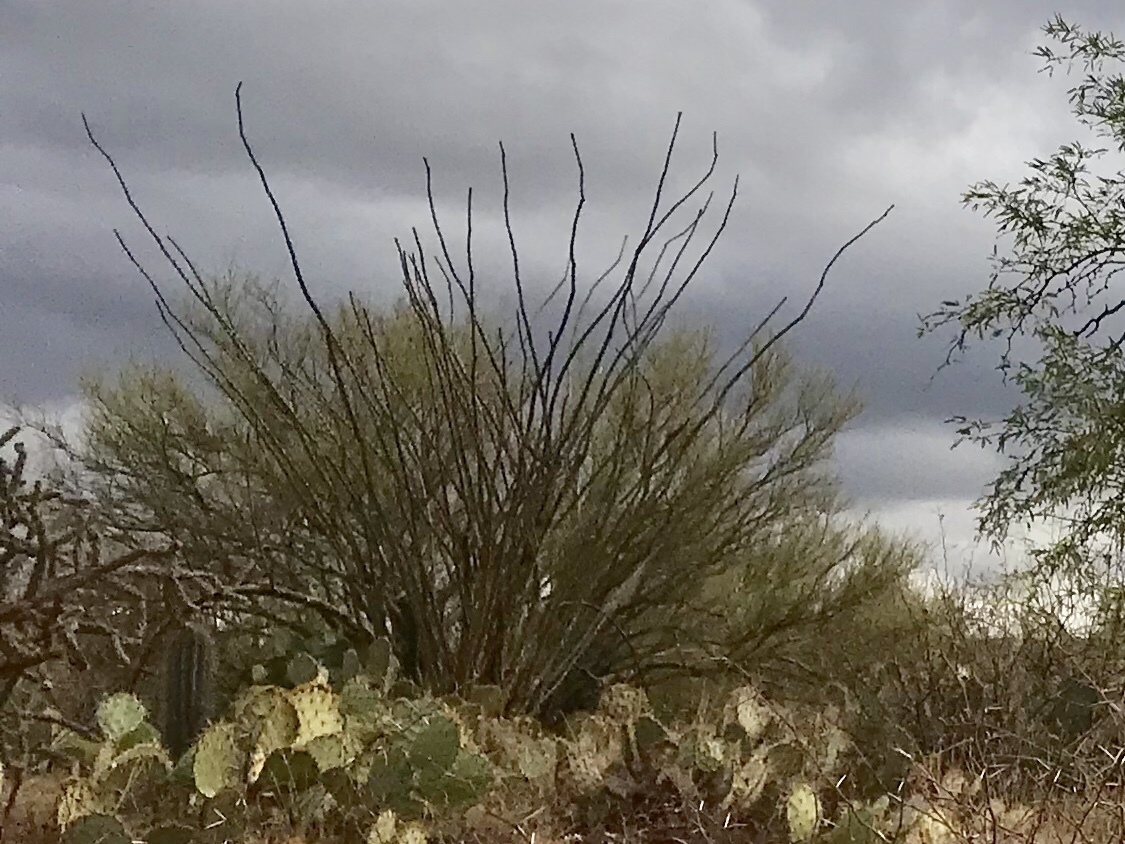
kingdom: Plantae
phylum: Tracheophyta
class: Magnoliopsida
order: Ericales
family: Fouquieriaceae
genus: Fouquieria
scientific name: Fouquieria splendens
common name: Vine-cactus
